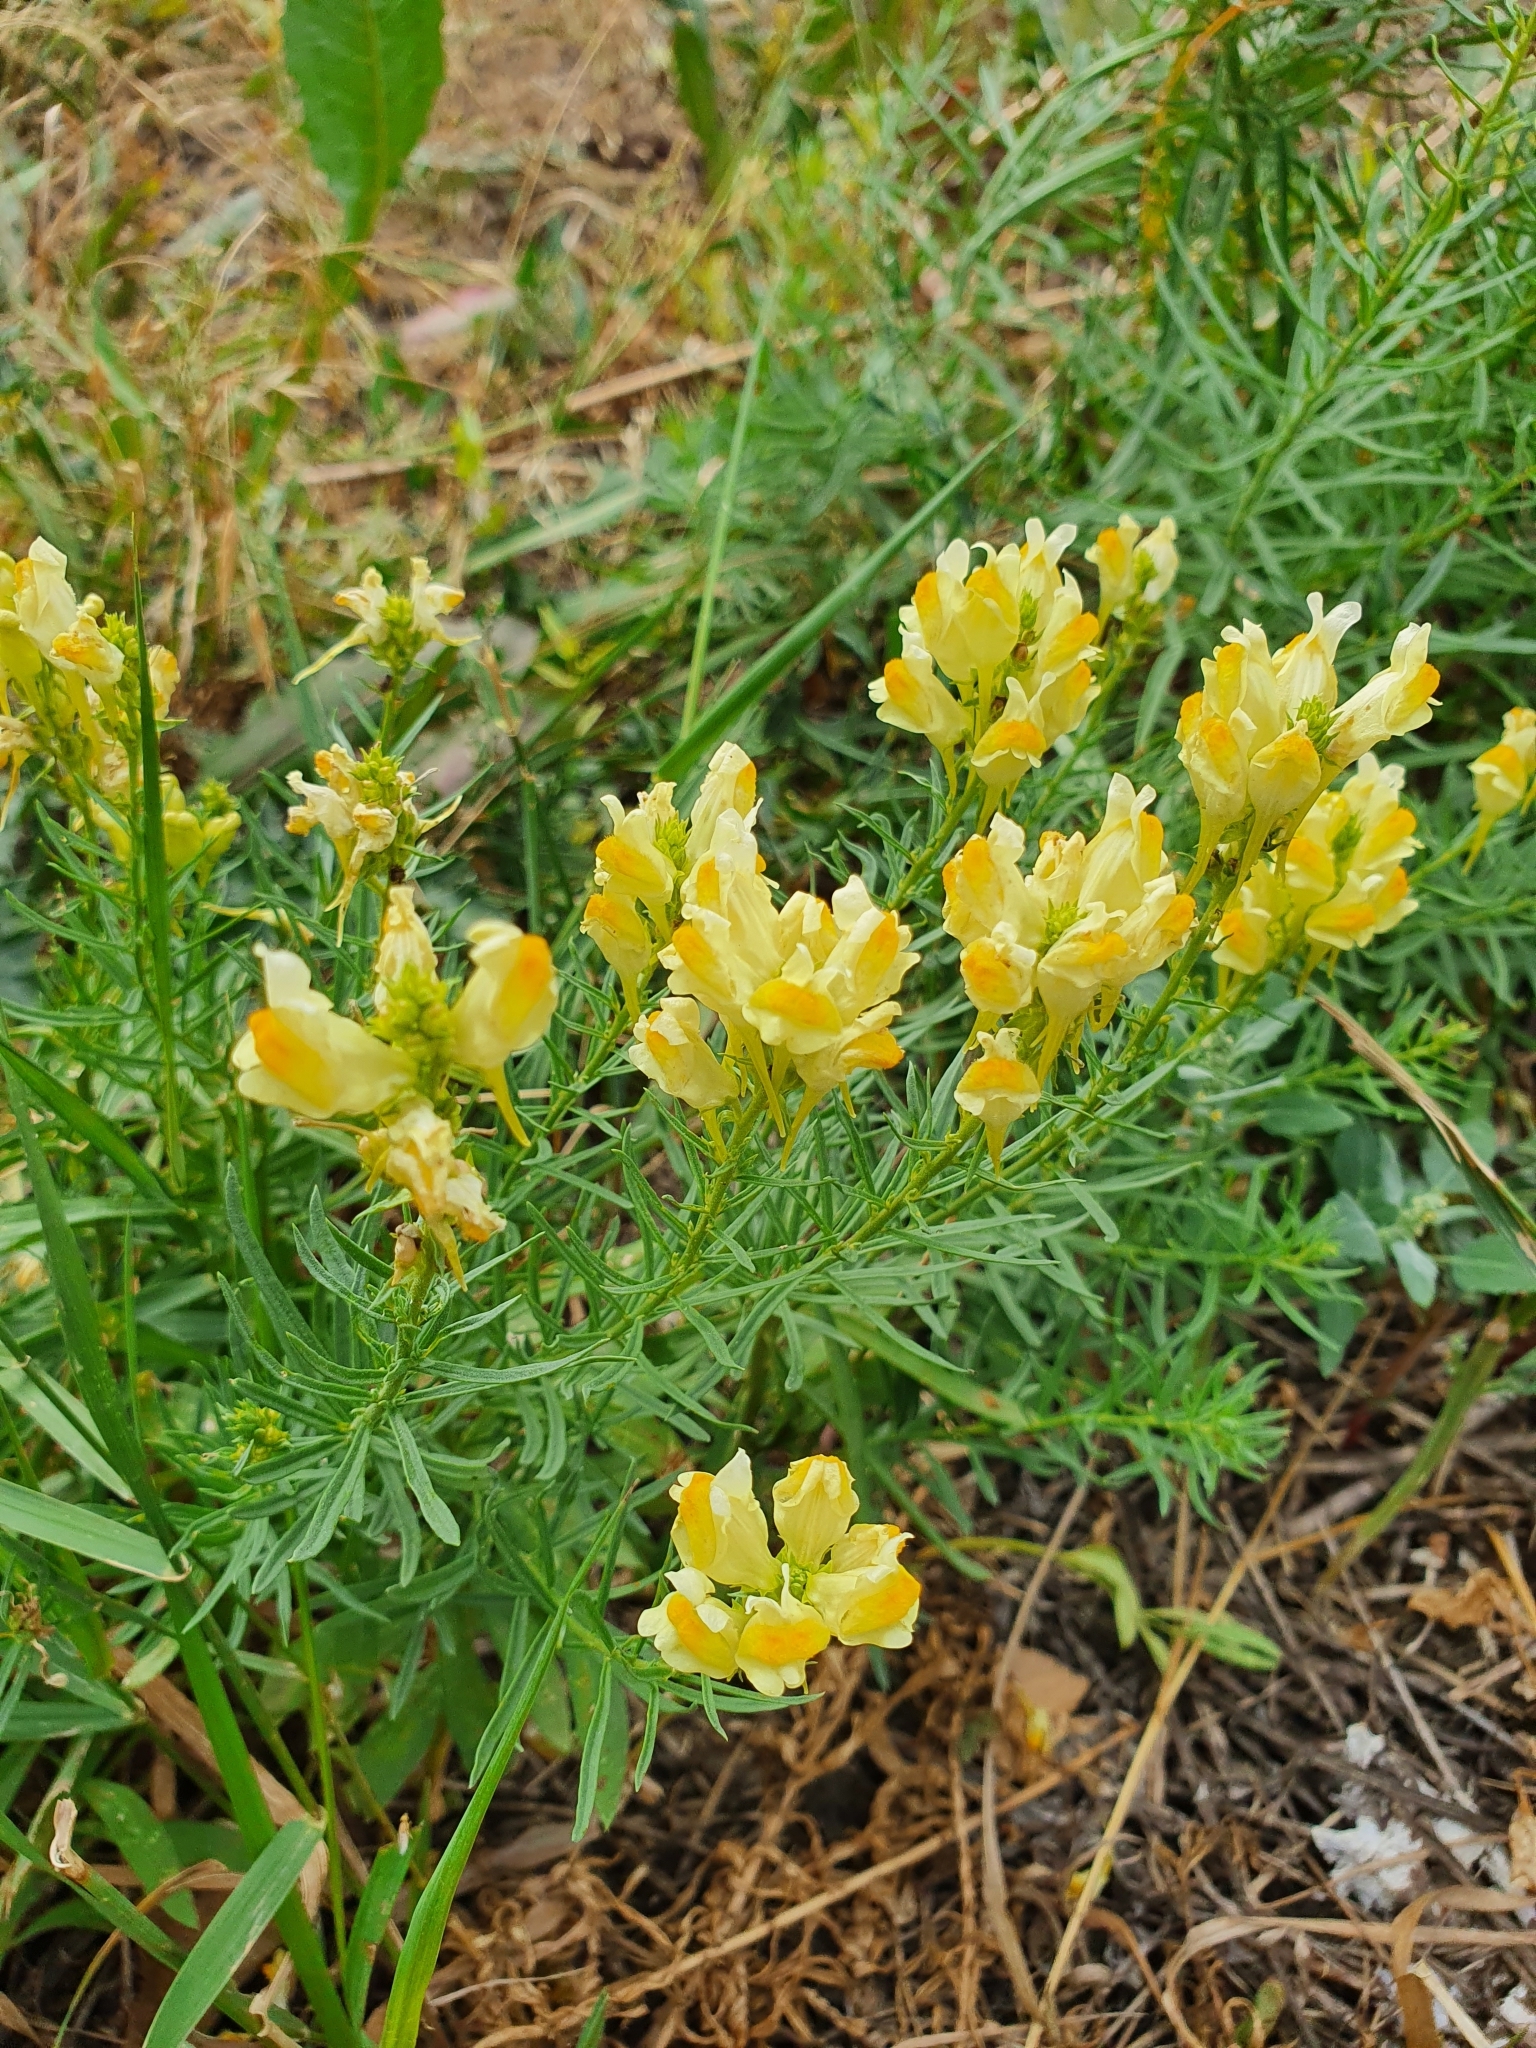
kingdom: Plantae
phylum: Tracheophyta
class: Magnoliopsida
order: Lamiales
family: Plantaginaceae
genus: Linaria
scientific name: Linaria vulgaris
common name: Butter and eggs
